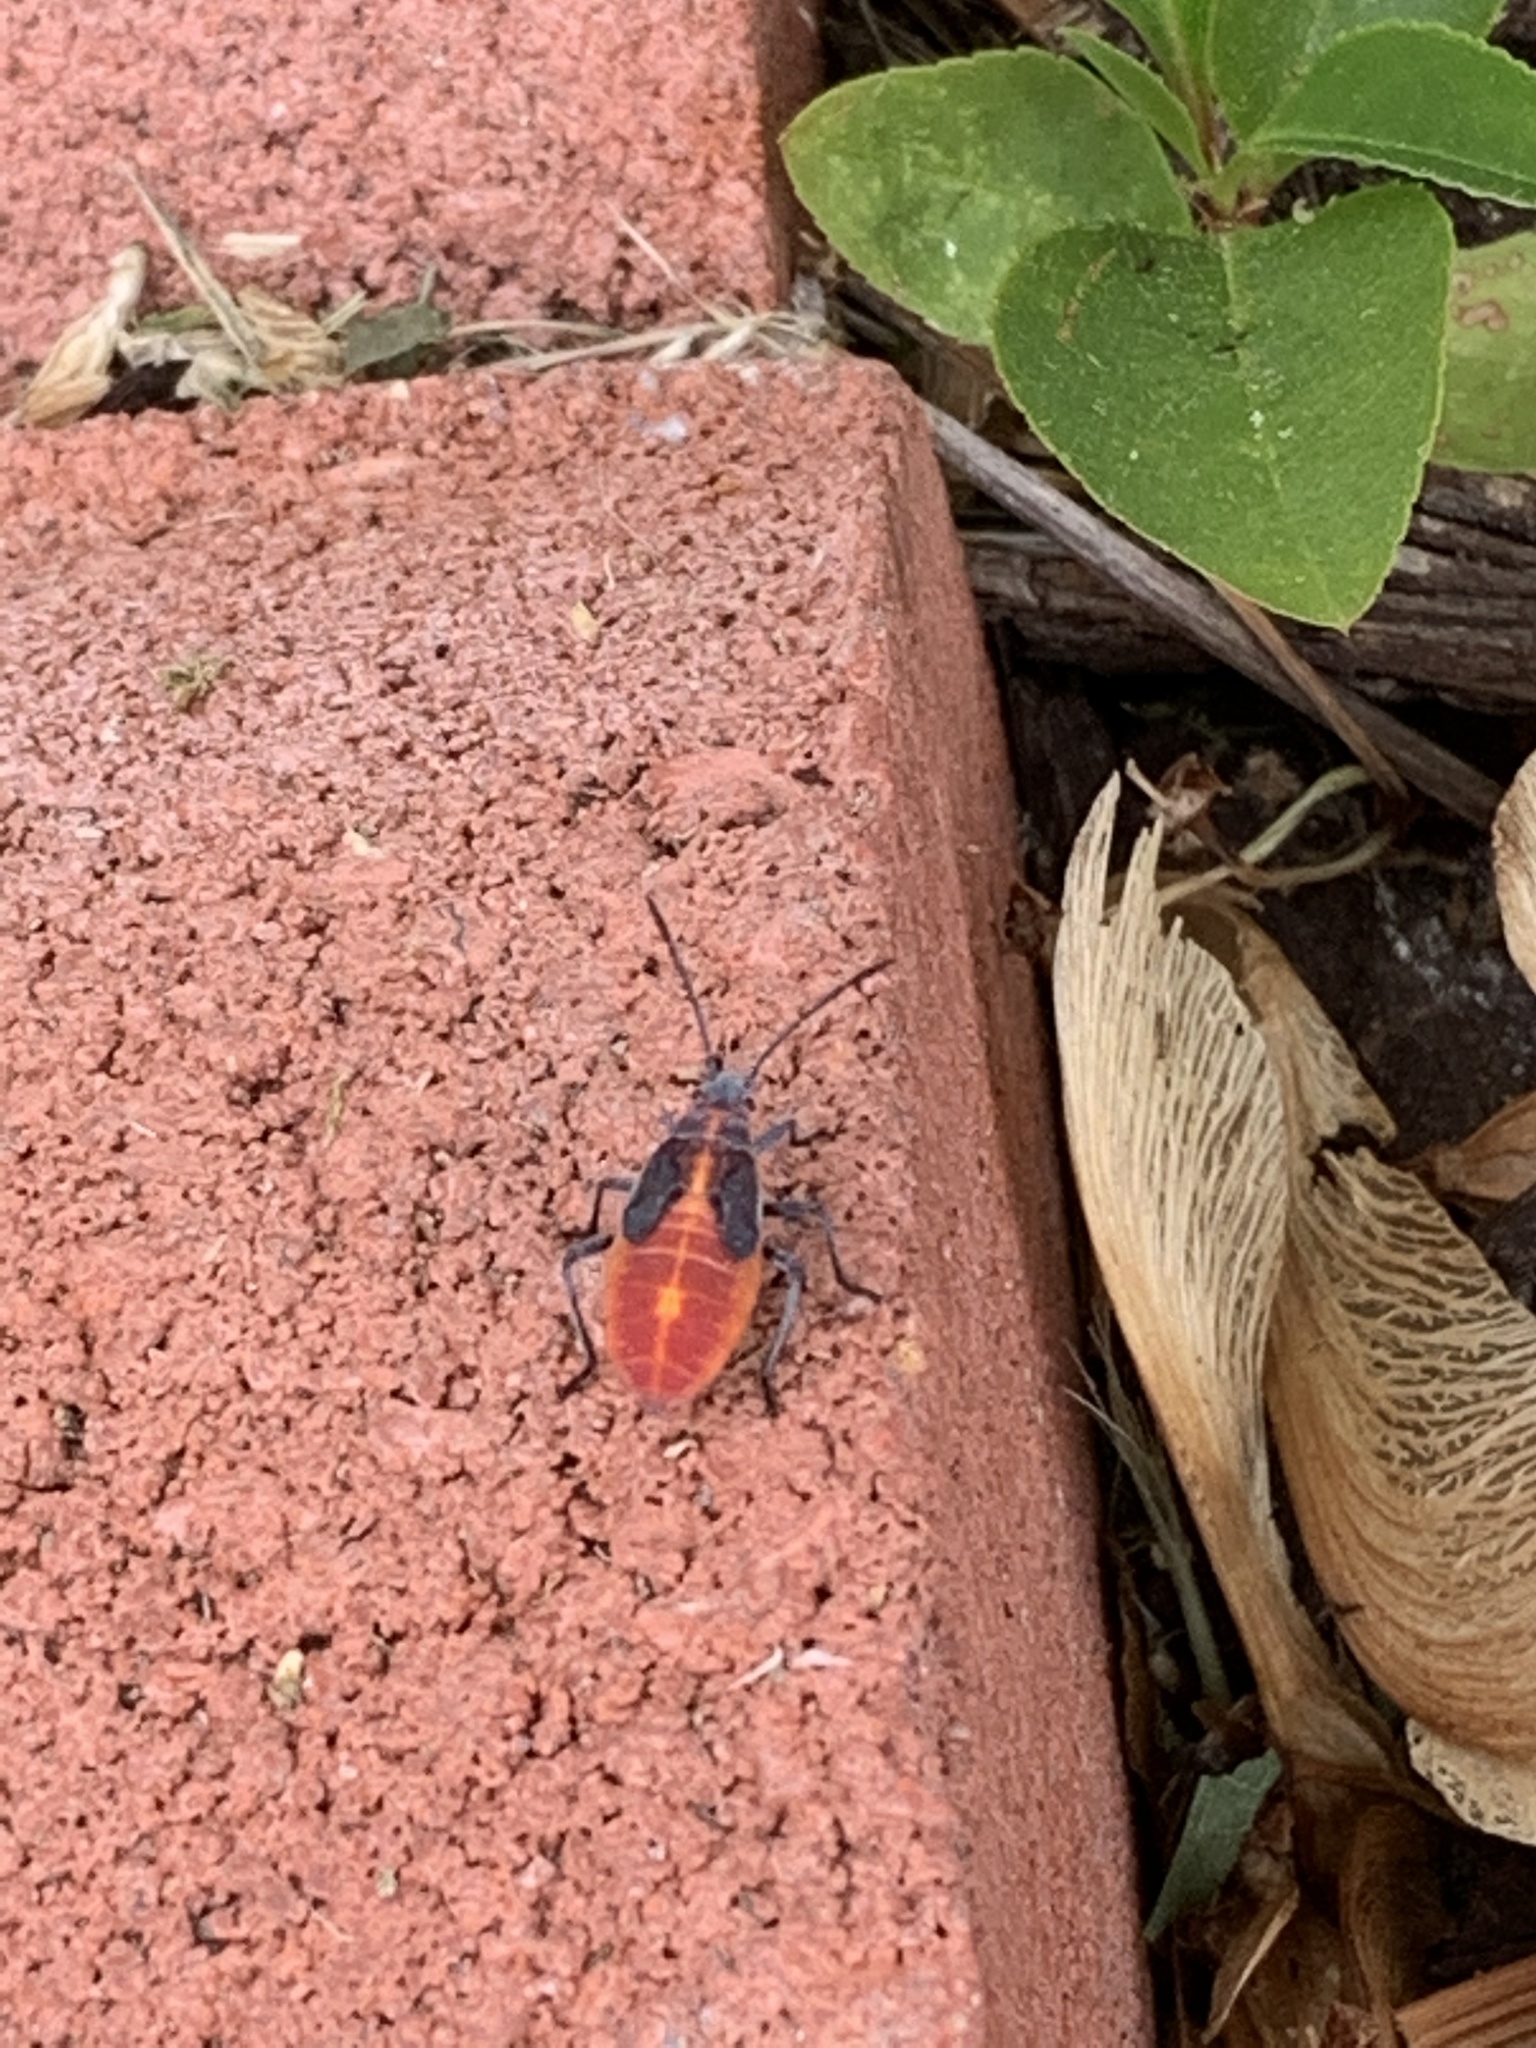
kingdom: Animalia
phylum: Arthropoda
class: Insecta
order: Hemiptera
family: Rhopalidae
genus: Boisea
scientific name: Boisea trivittata
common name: Boxelder bug
